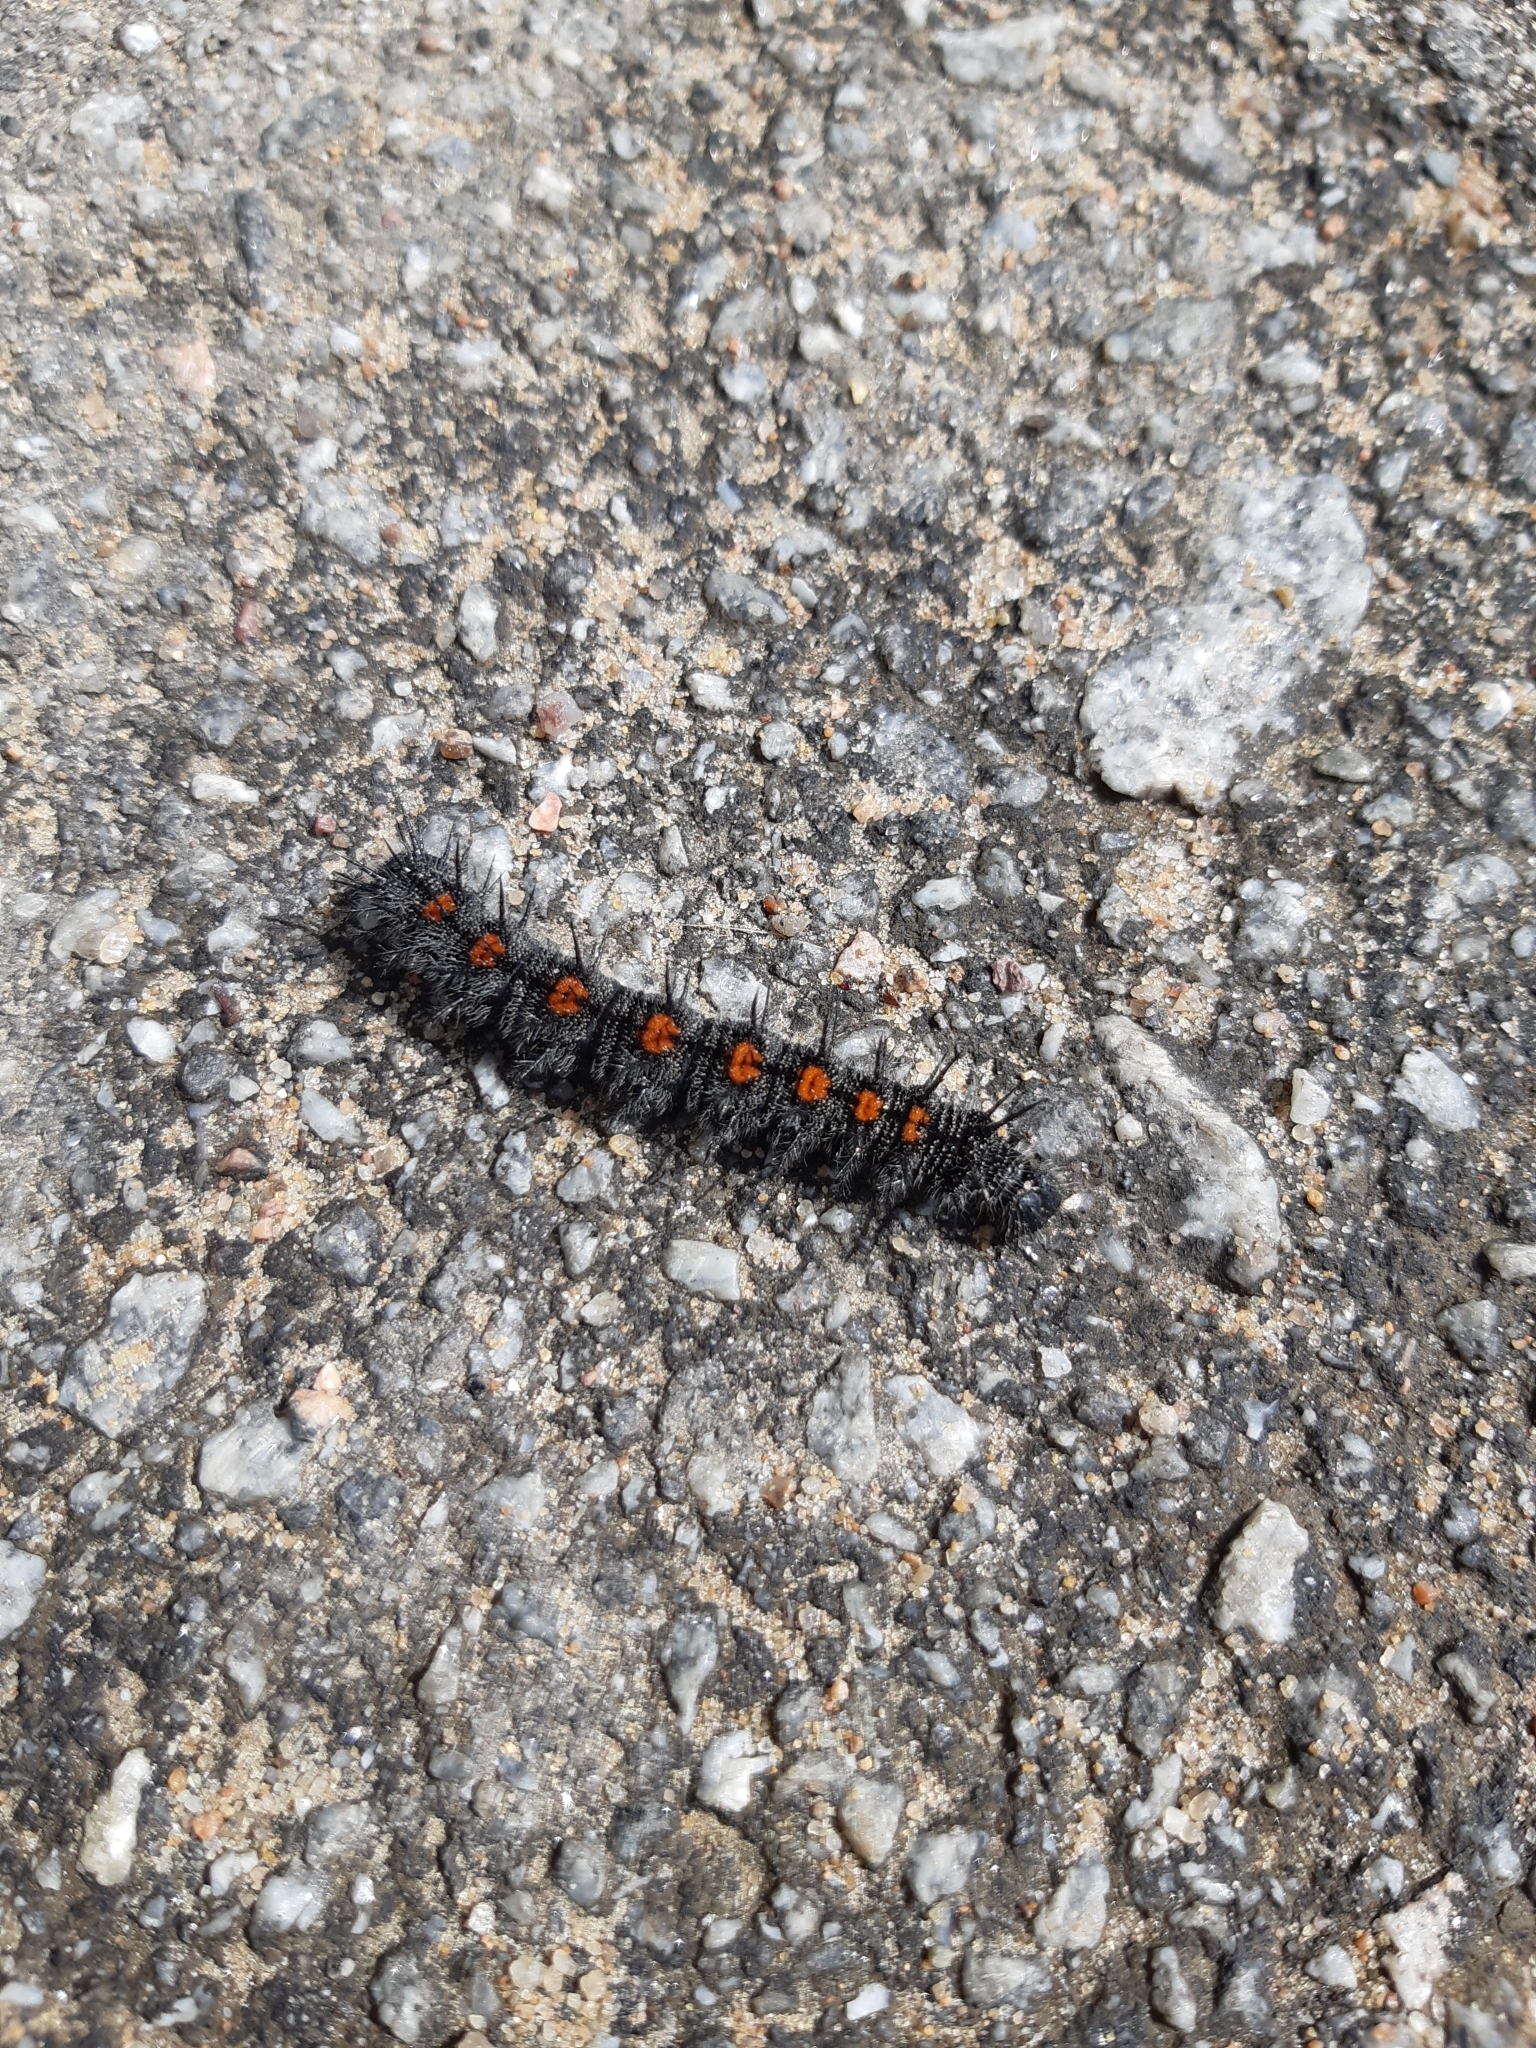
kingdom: Animalia
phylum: Arthropoda
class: Insecta
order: Lepidoptera
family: Nymphalidae
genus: Nymphalis
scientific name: Nymphalis antiopa
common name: Camberwell beauty
